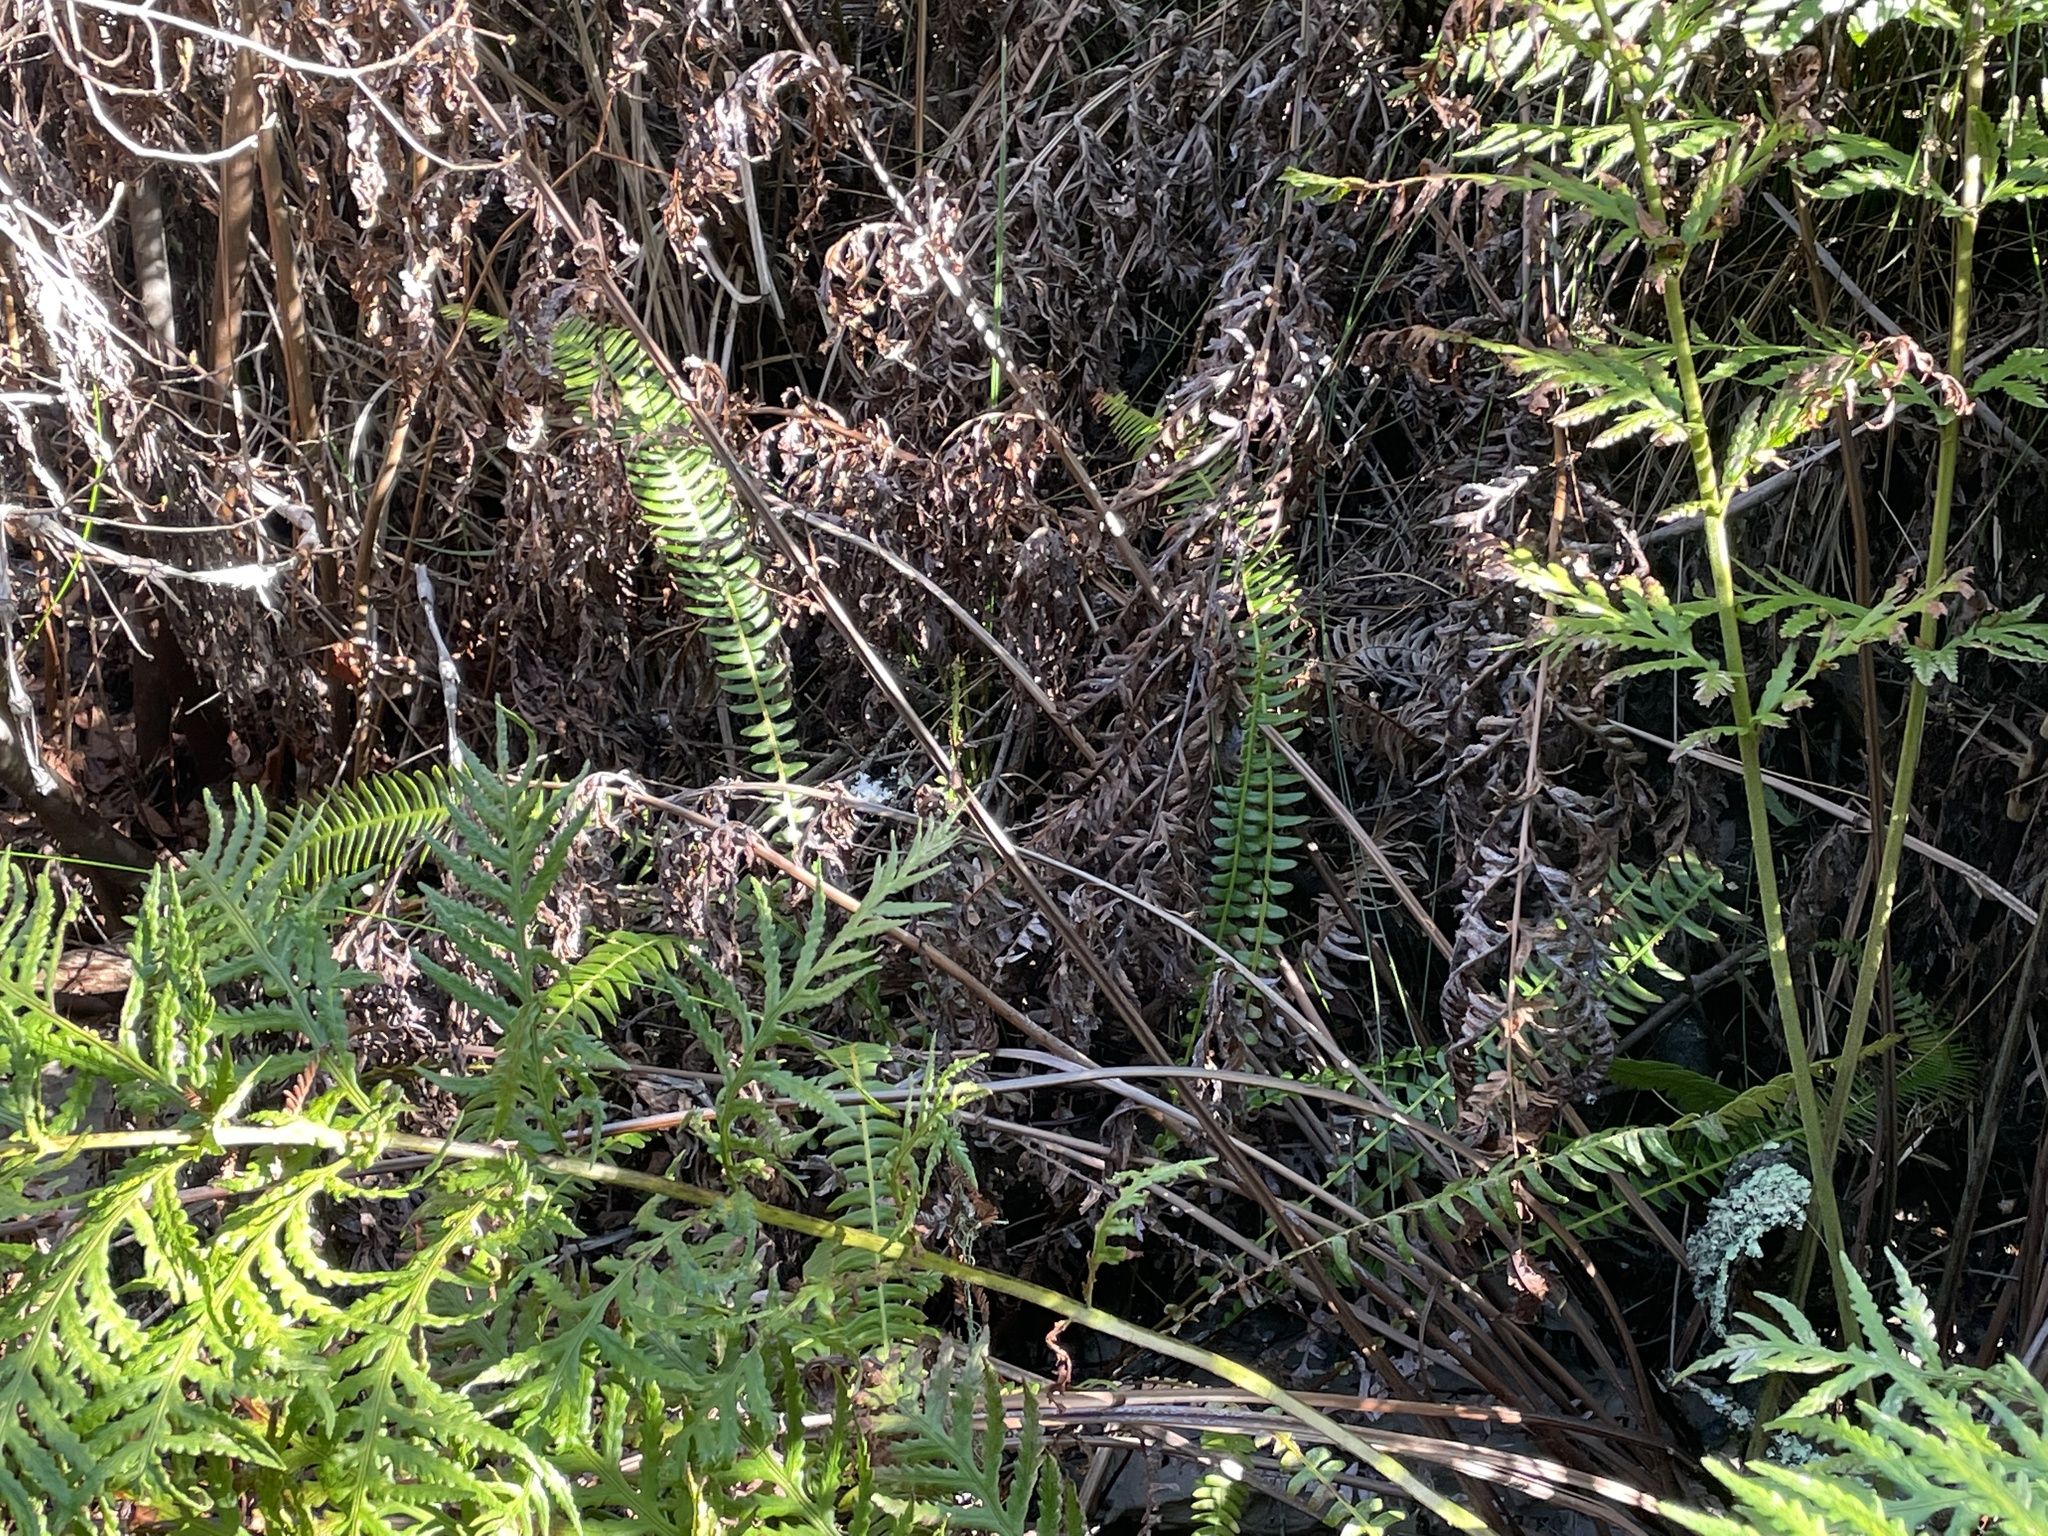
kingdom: Plantae
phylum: Tracheophyta
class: Polypodiopsida
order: Polypodiales
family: Blechnaceae
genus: Struthiopteris
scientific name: Struthiopteris spicant
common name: Deer fern
